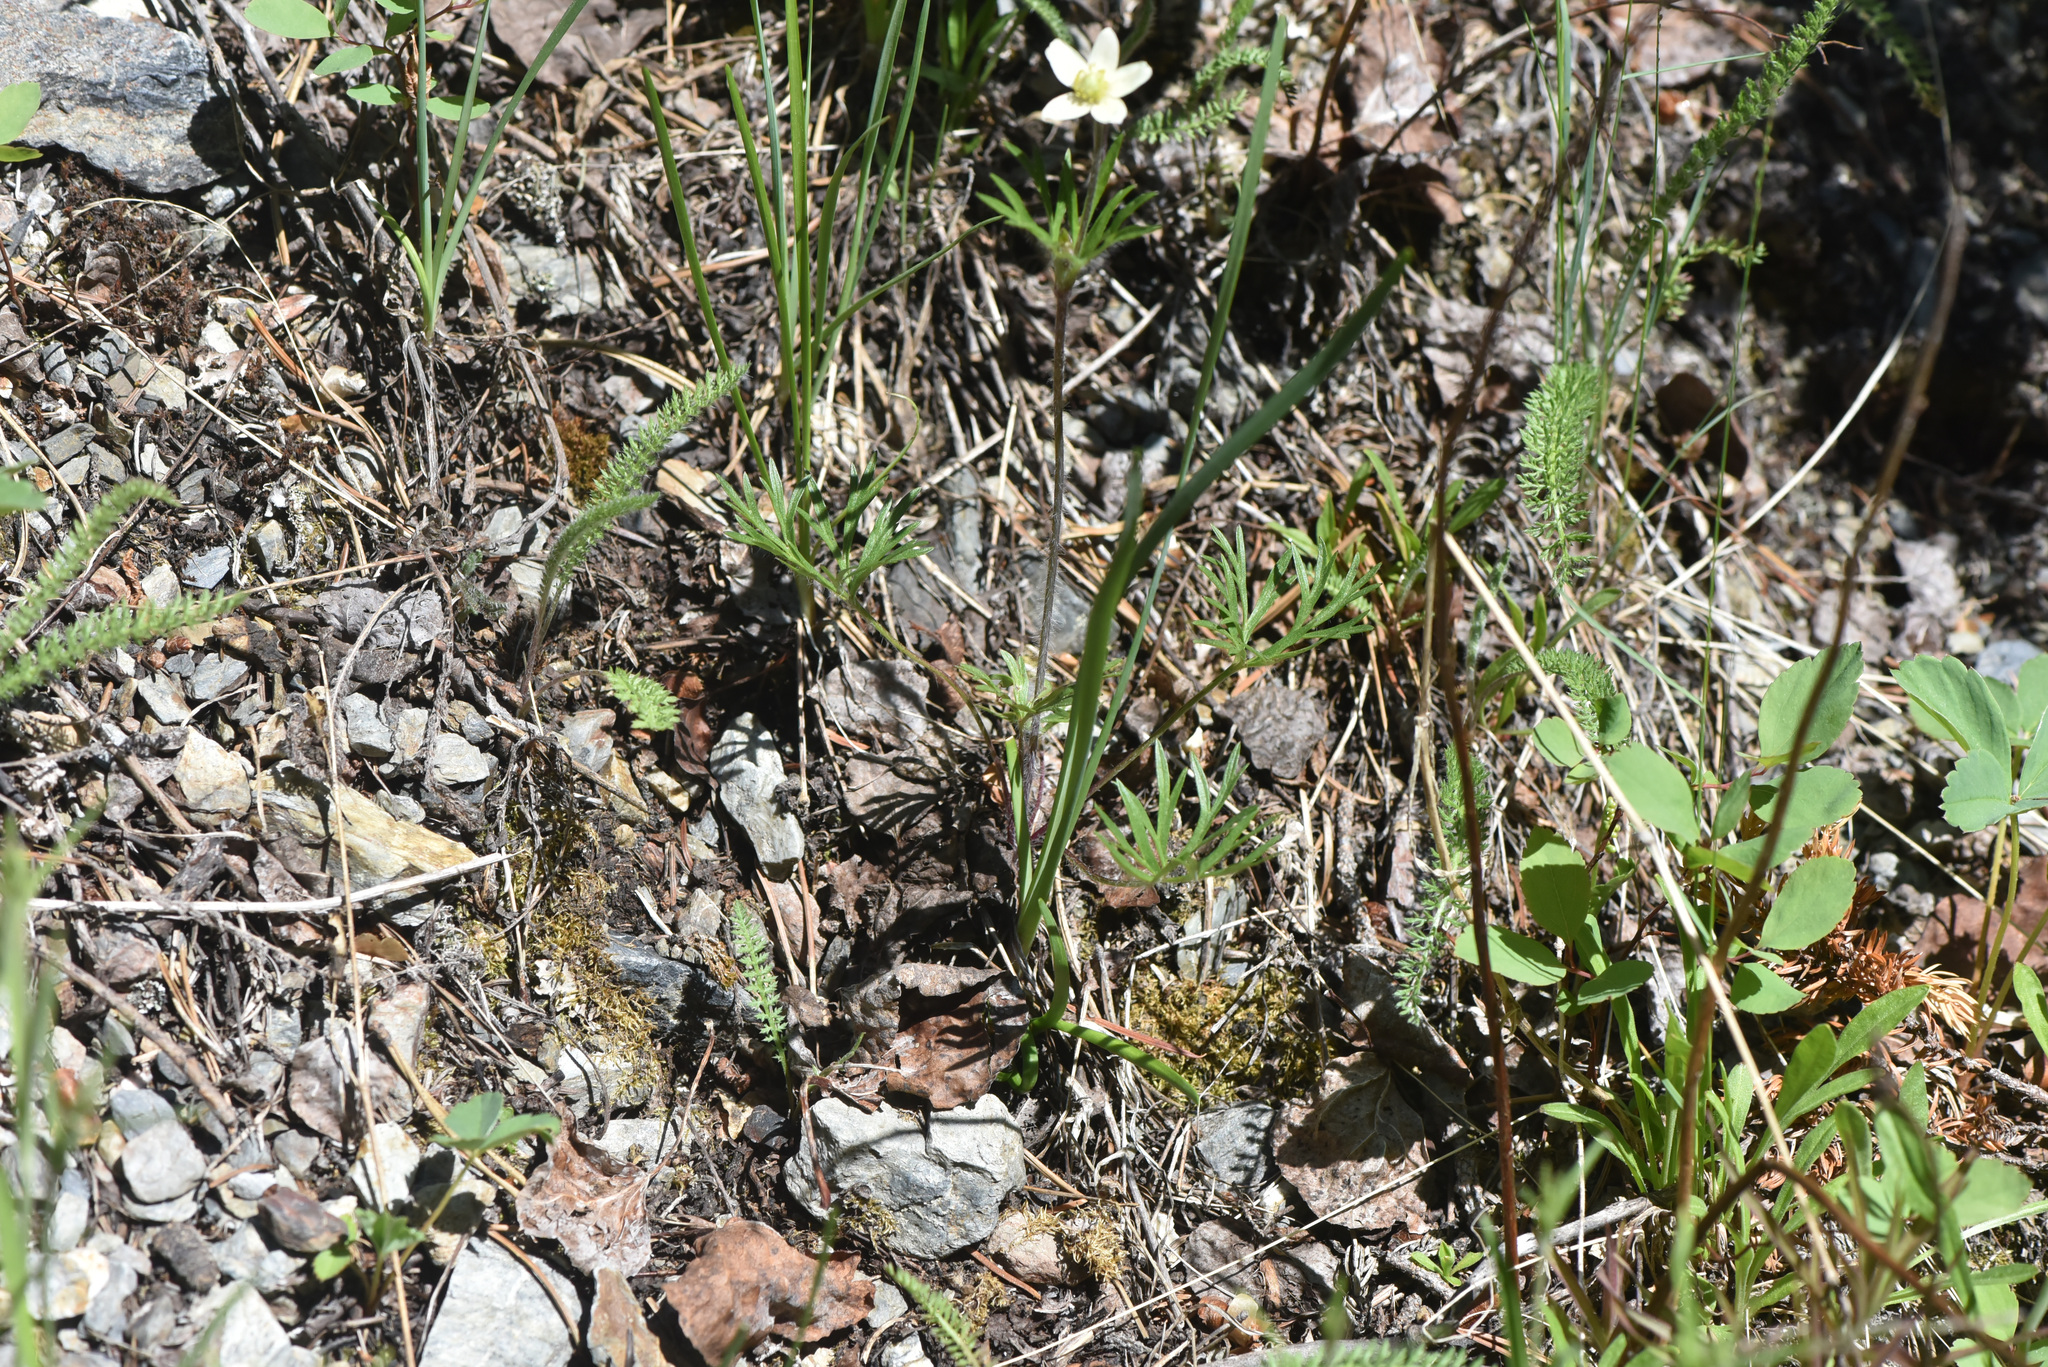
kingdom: Plantae
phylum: Tracheophyta
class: Magnoliopsida
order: Ranunculales
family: Ranunculaceae
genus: Anemone
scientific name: Anemone multifida
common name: Bird's-foot anemone
